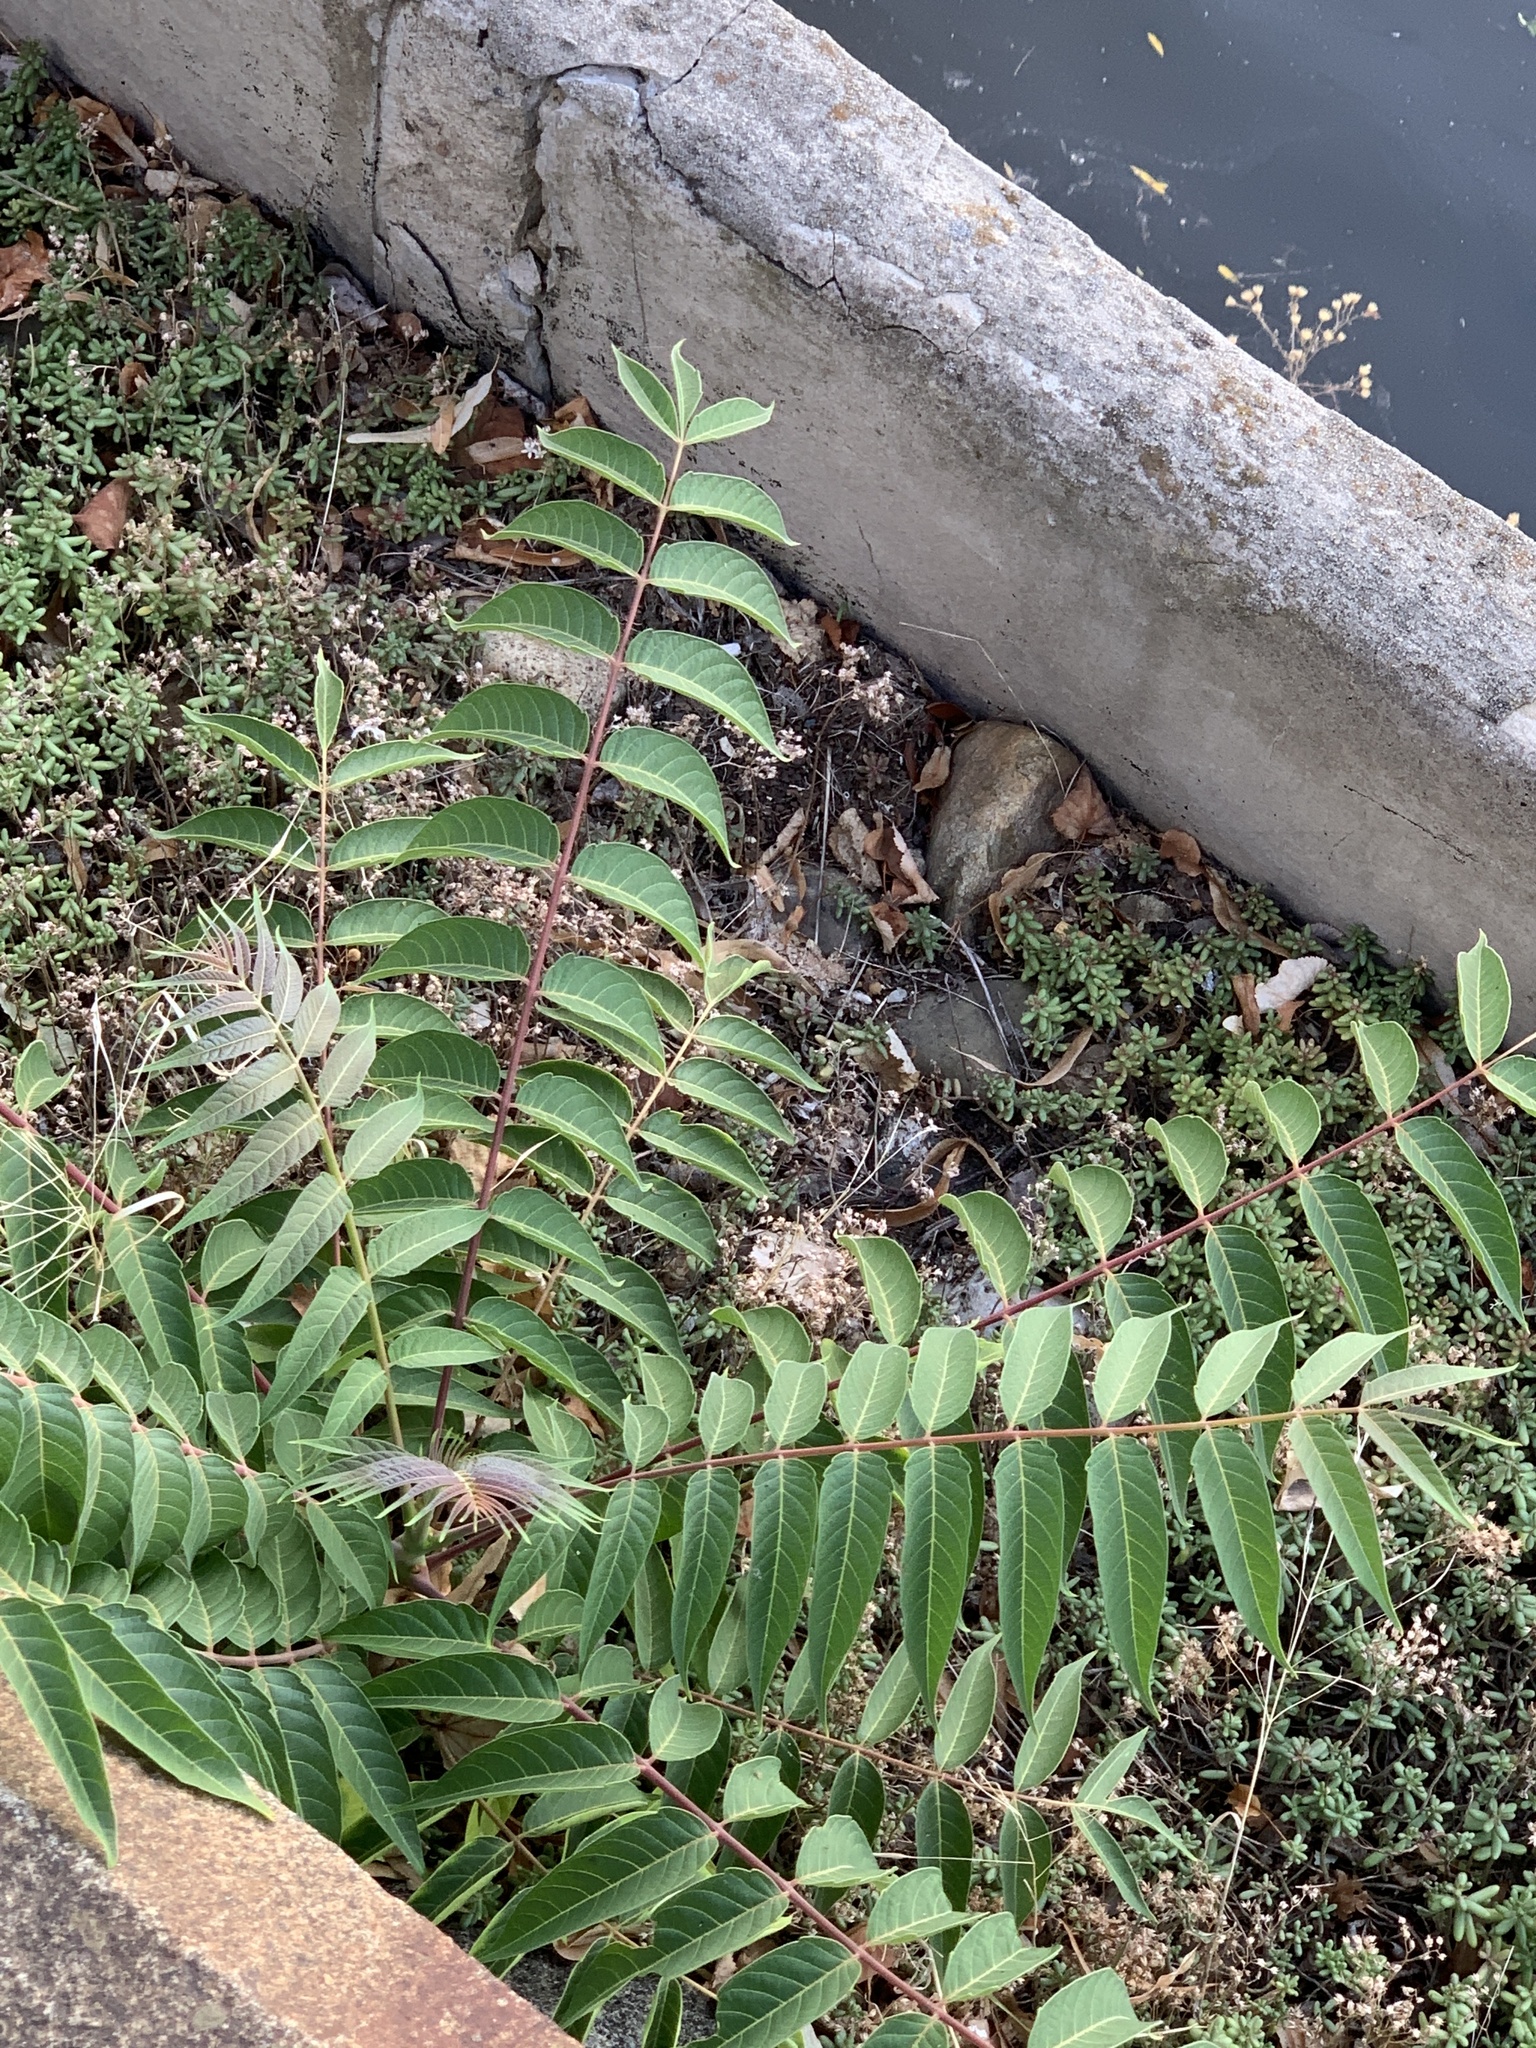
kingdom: Plantae
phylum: Tracheophyta
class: Magnoliopsida
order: Sapindales
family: Simaroubaceae
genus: Ailanthus
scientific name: Ailanthus altissima
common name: Tree-of-heaven
